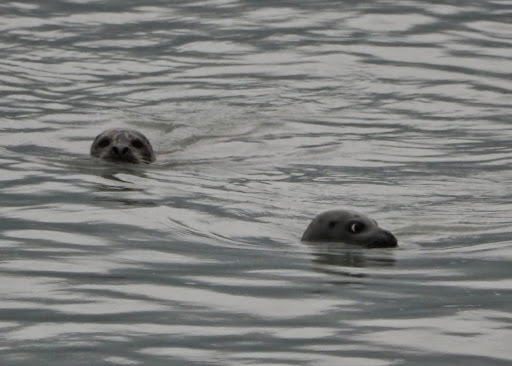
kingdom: Animalia
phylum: Chordata
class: Mammalia
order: Carnivora
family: Phocidae
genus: Phoca
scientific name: Phoca vitulina
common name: Harbor seal
